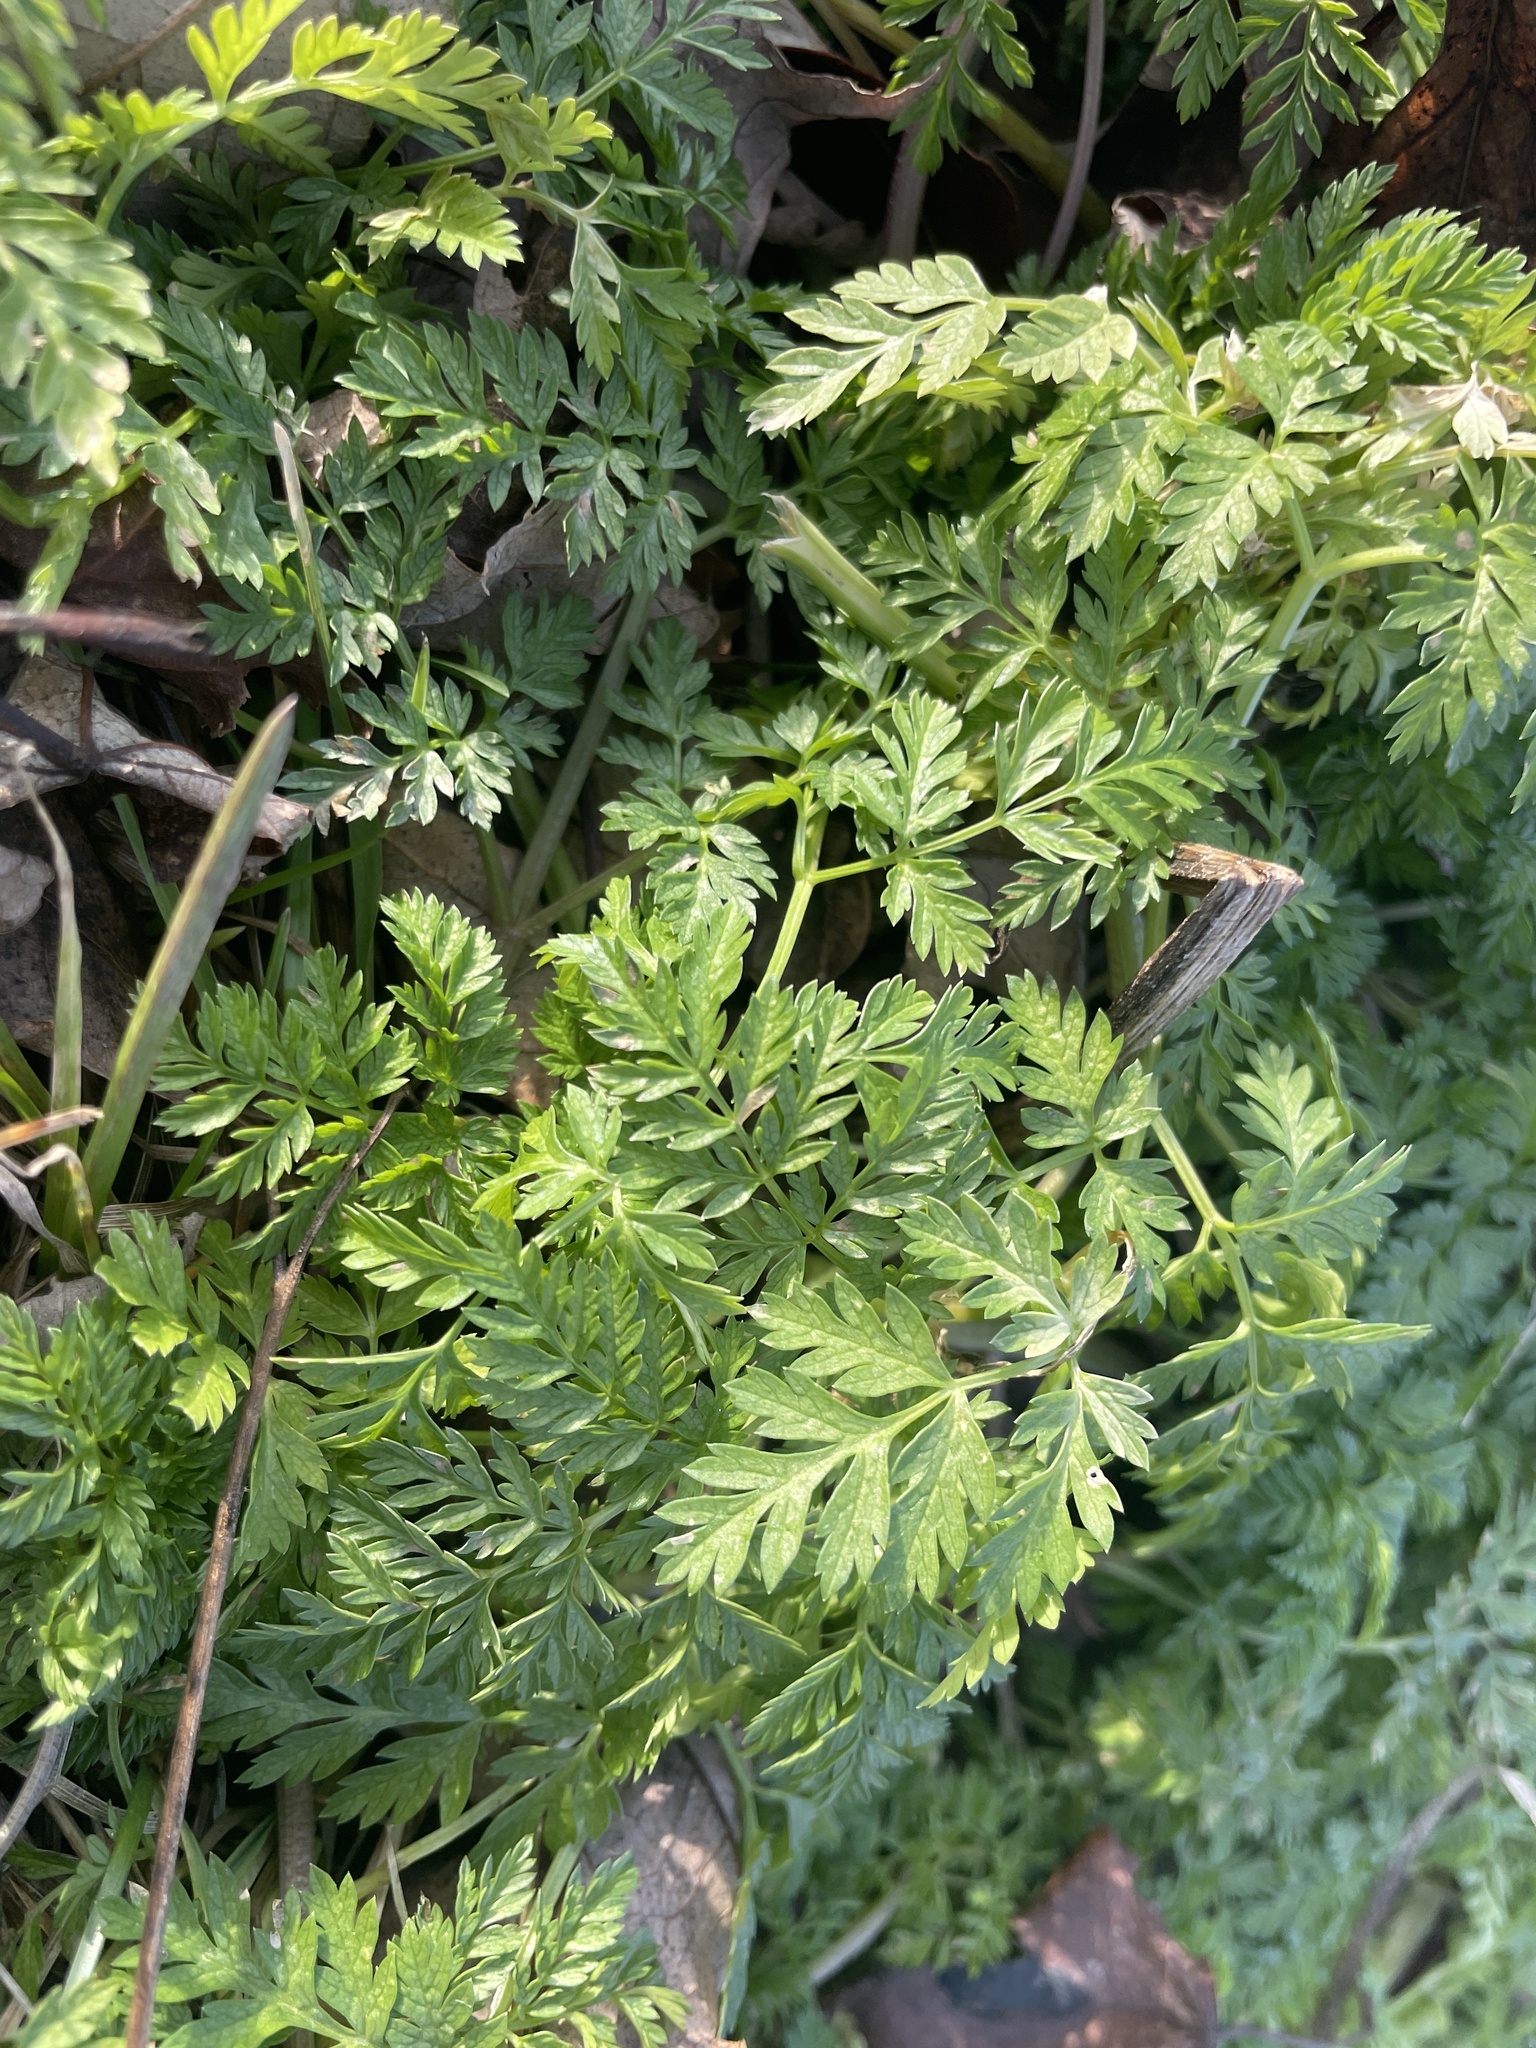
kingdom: Plantae
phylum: Tracheophyta
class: Magnoliopsida
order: Apiales
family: Apiaceae
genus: Conium
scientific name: Conium maculatum
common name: Hemlock
